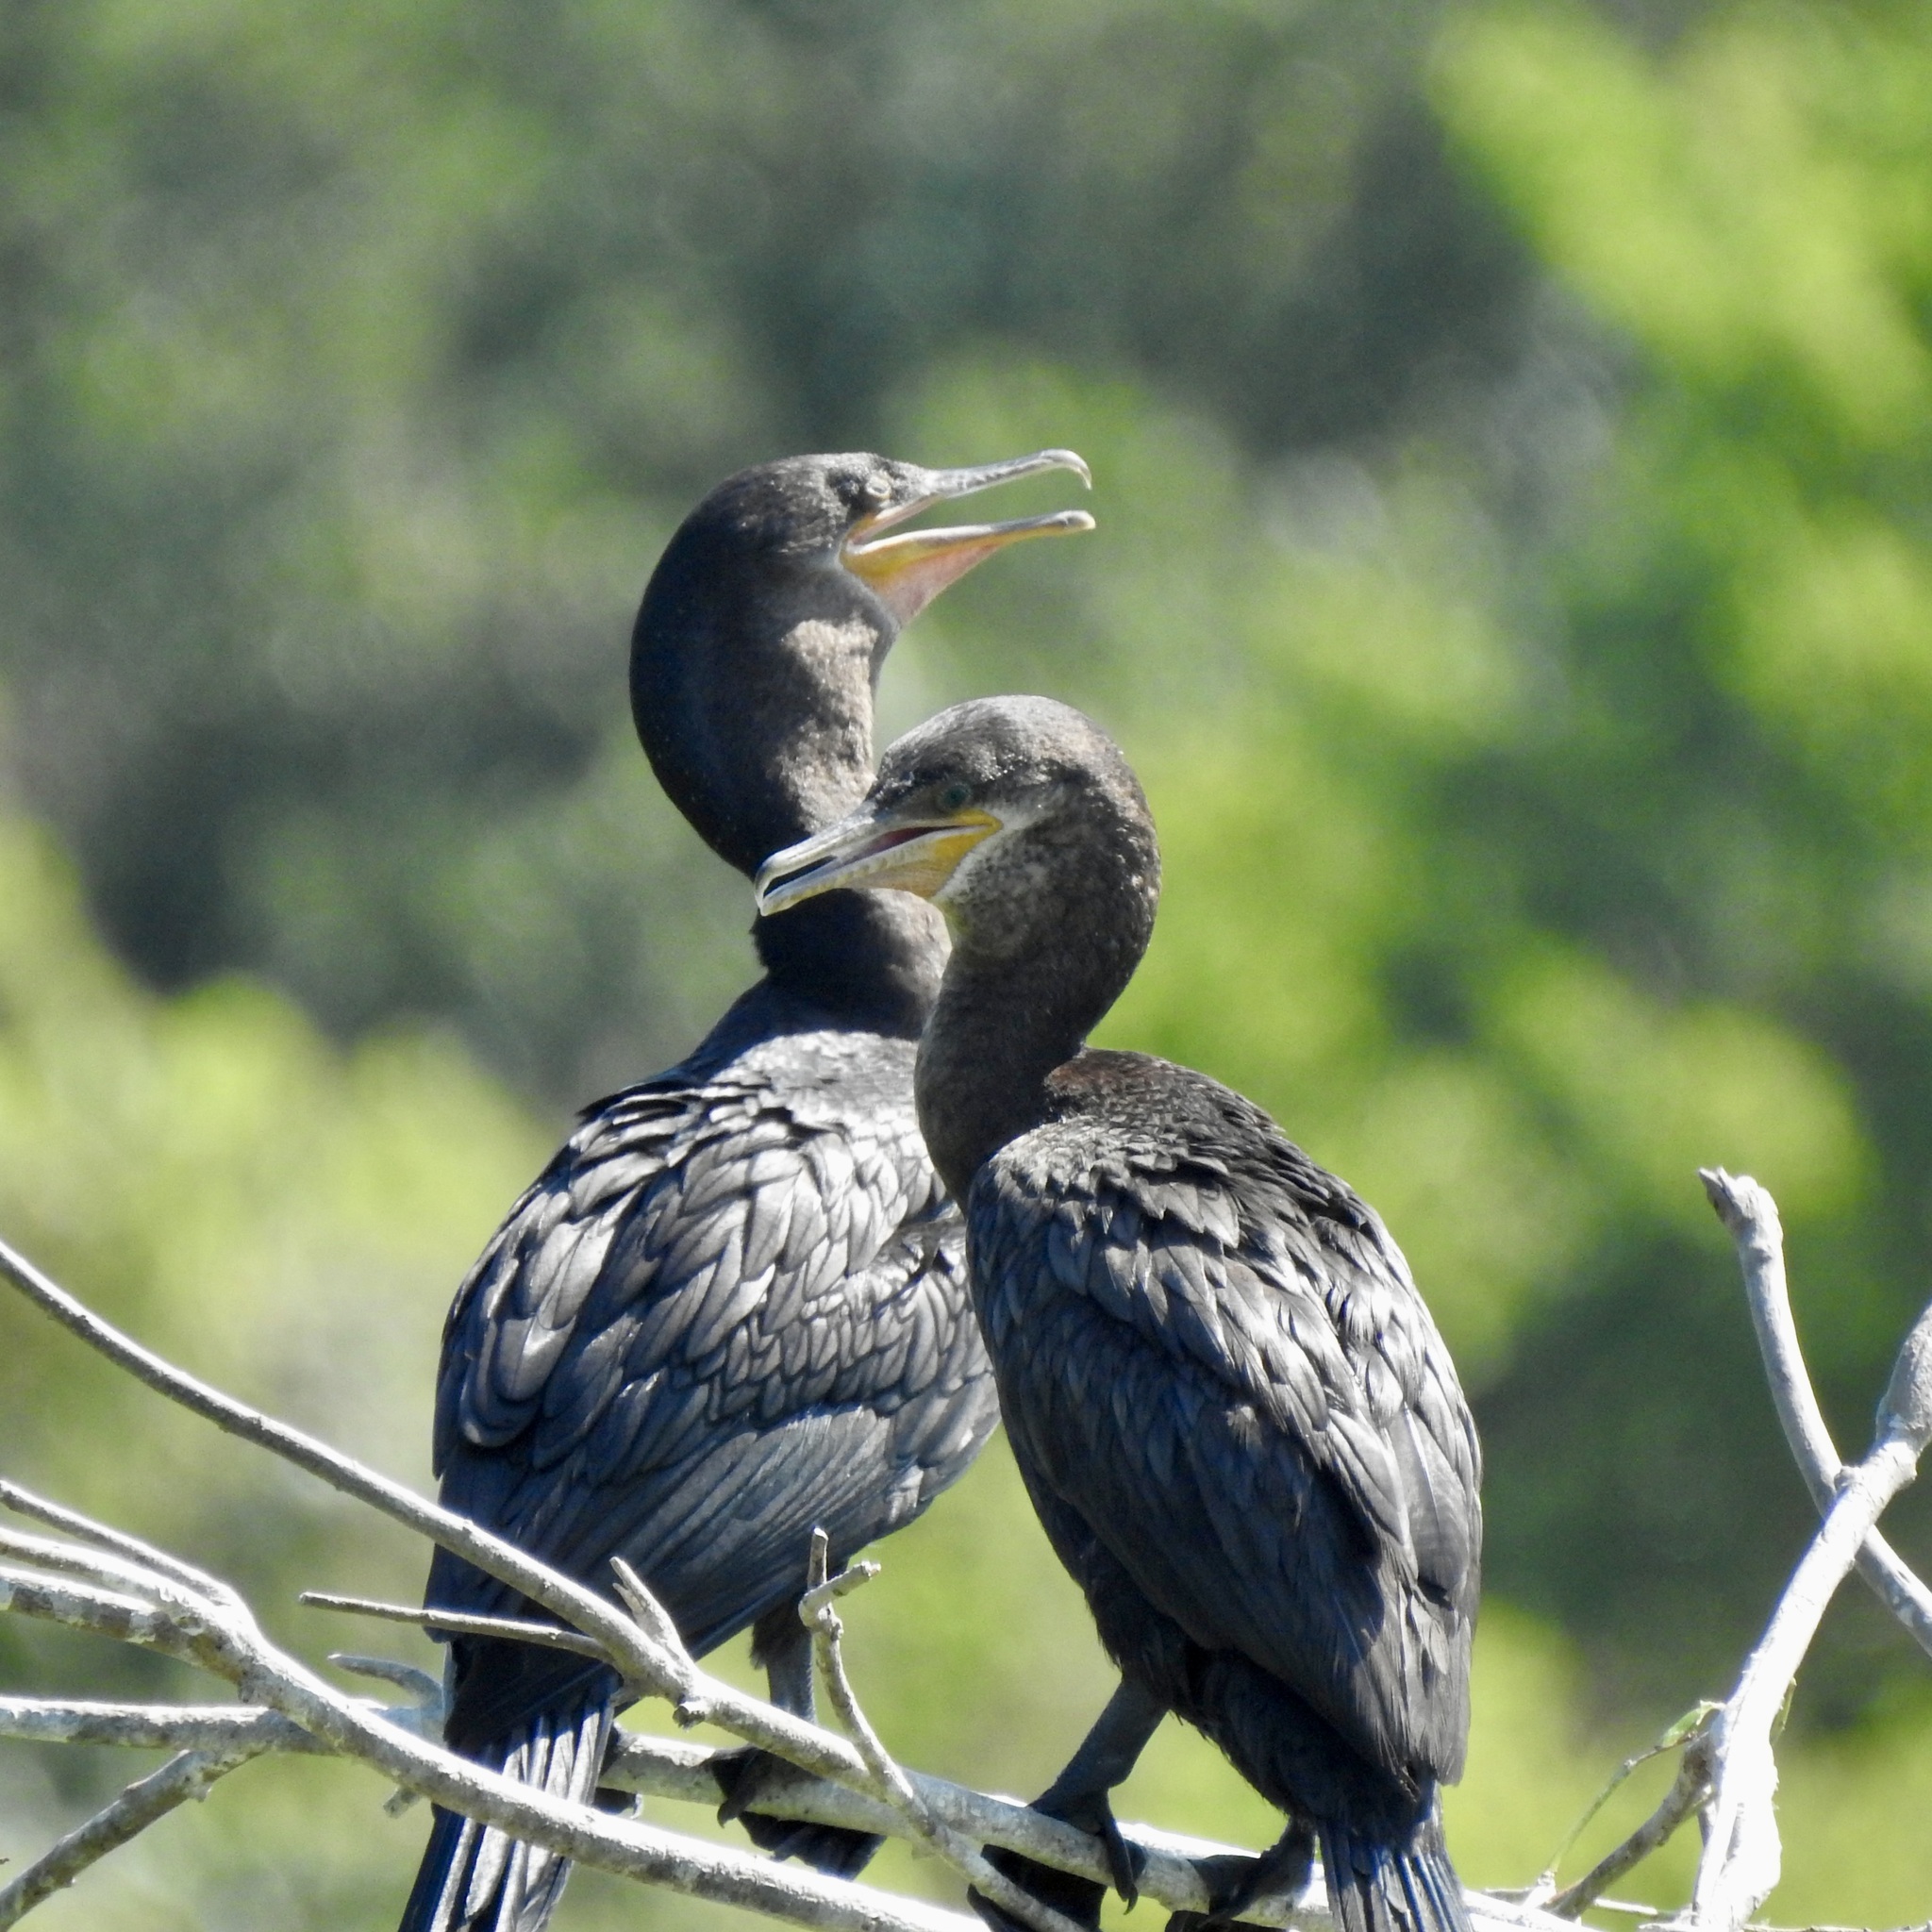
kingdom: Animalia
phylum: Chordata
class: Aves
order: Suliformes
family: Phalacrocoracidae
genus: Phalacrocorax
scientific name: Phalacrocorax auritus
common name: Double-crested cormorant
